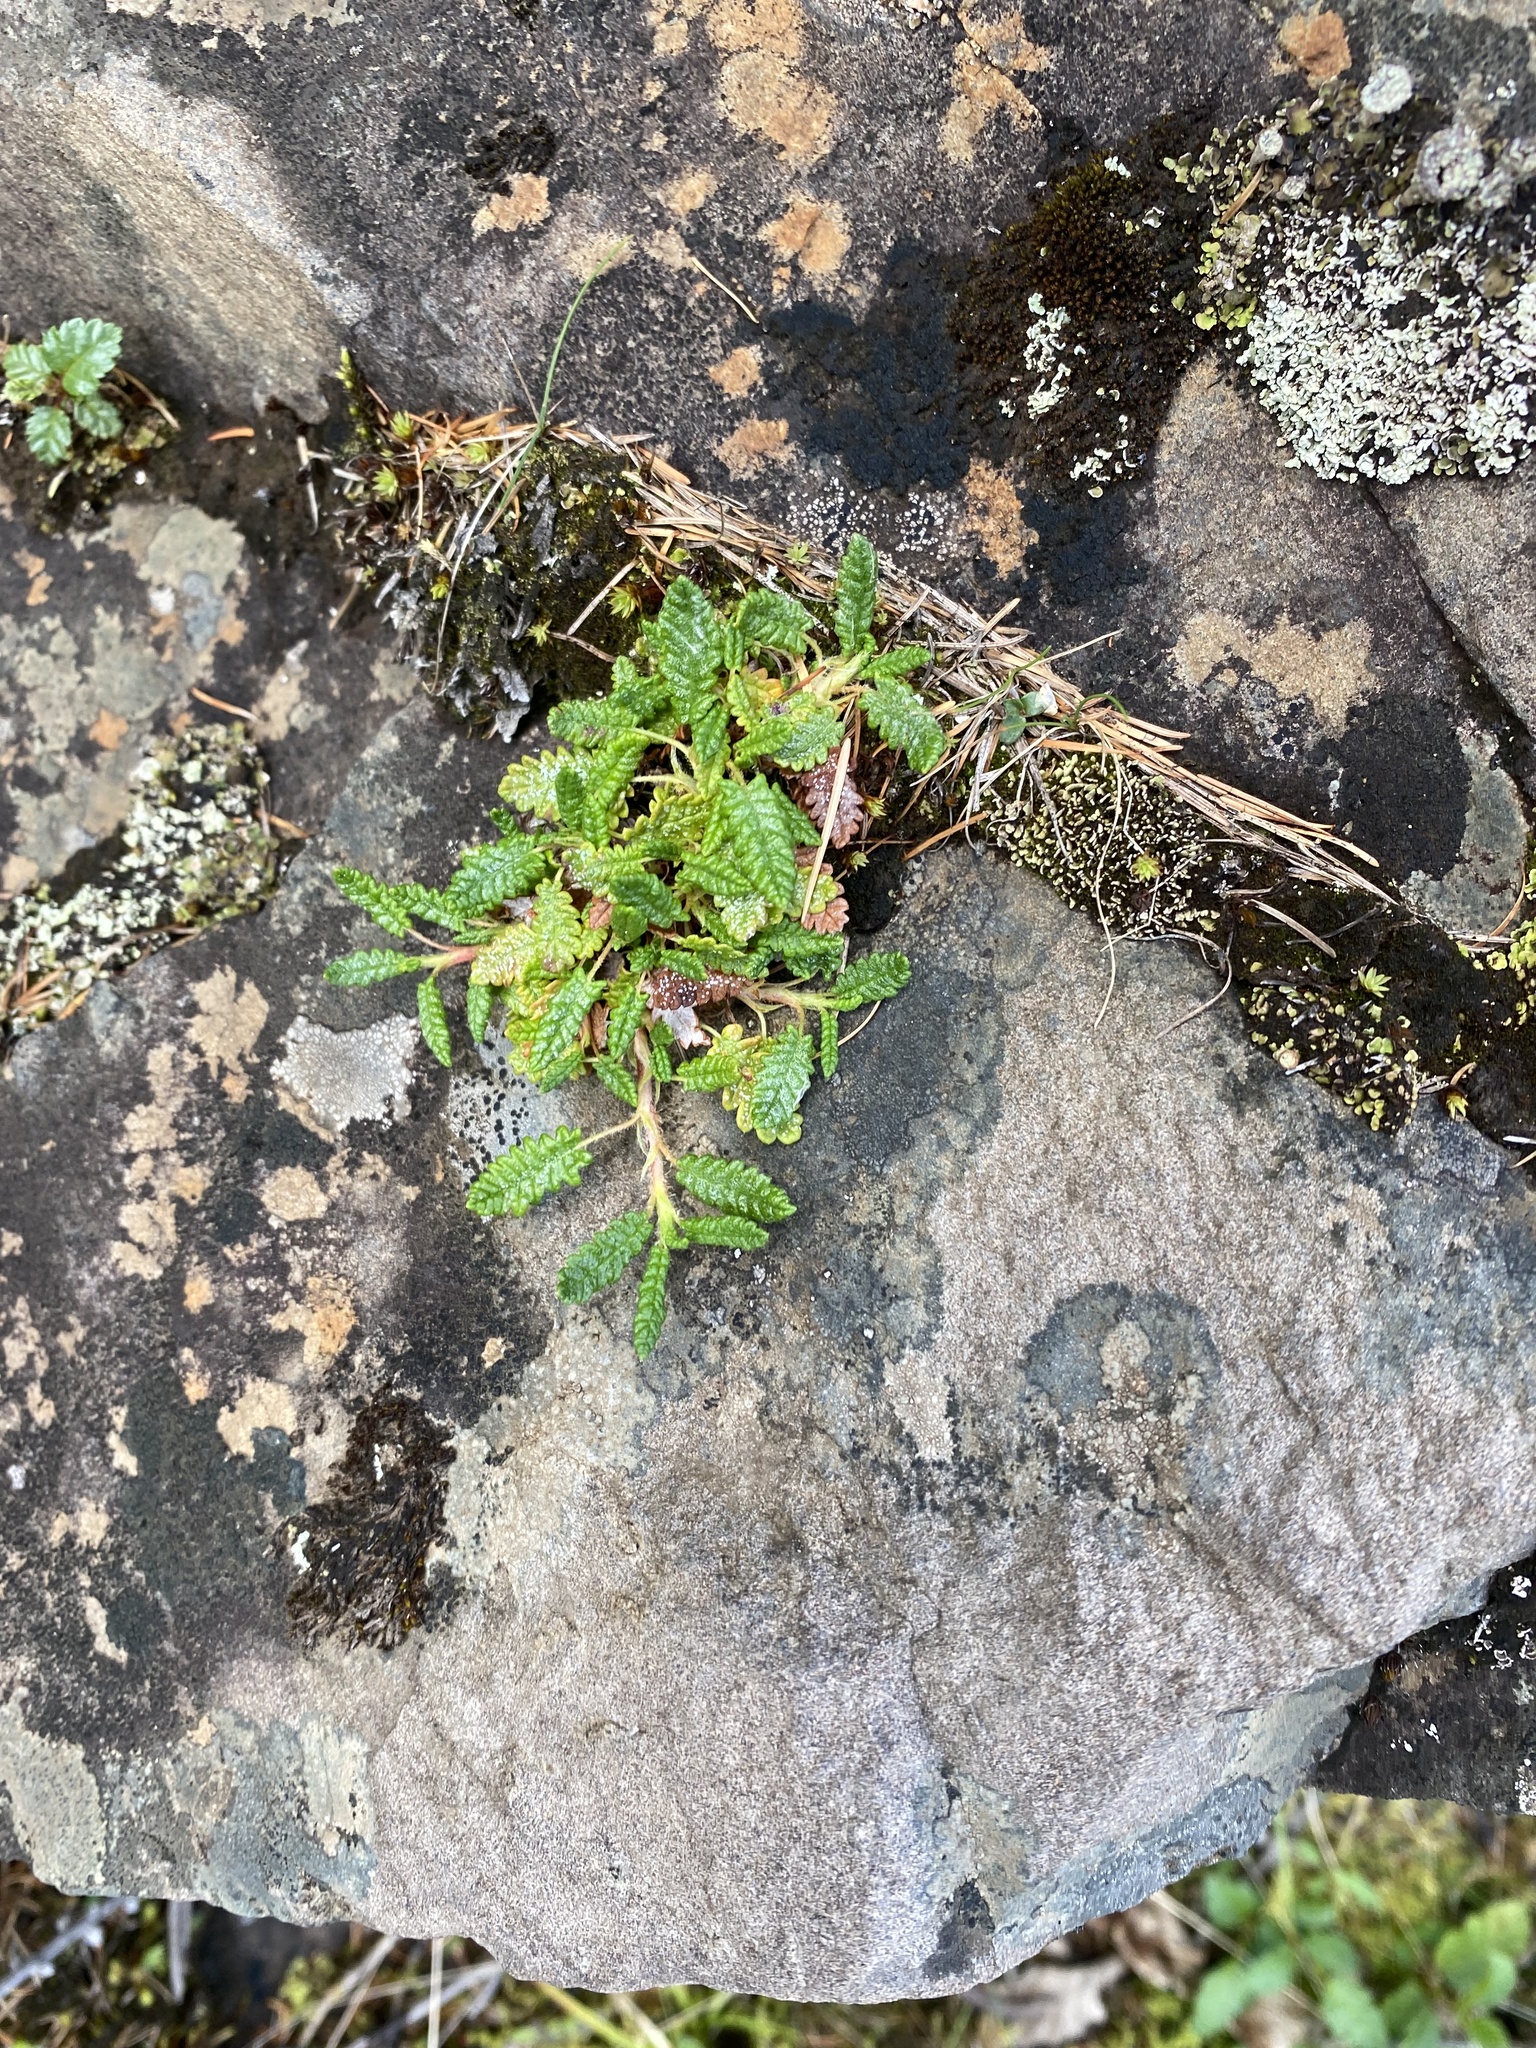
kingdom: Plantae
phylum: Tracheophyta
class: Magnoliopsida
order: Rosales
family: Rosaceae
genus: Dryas
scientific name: Dryas octopetala
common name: Eight-petal mountain-avens
